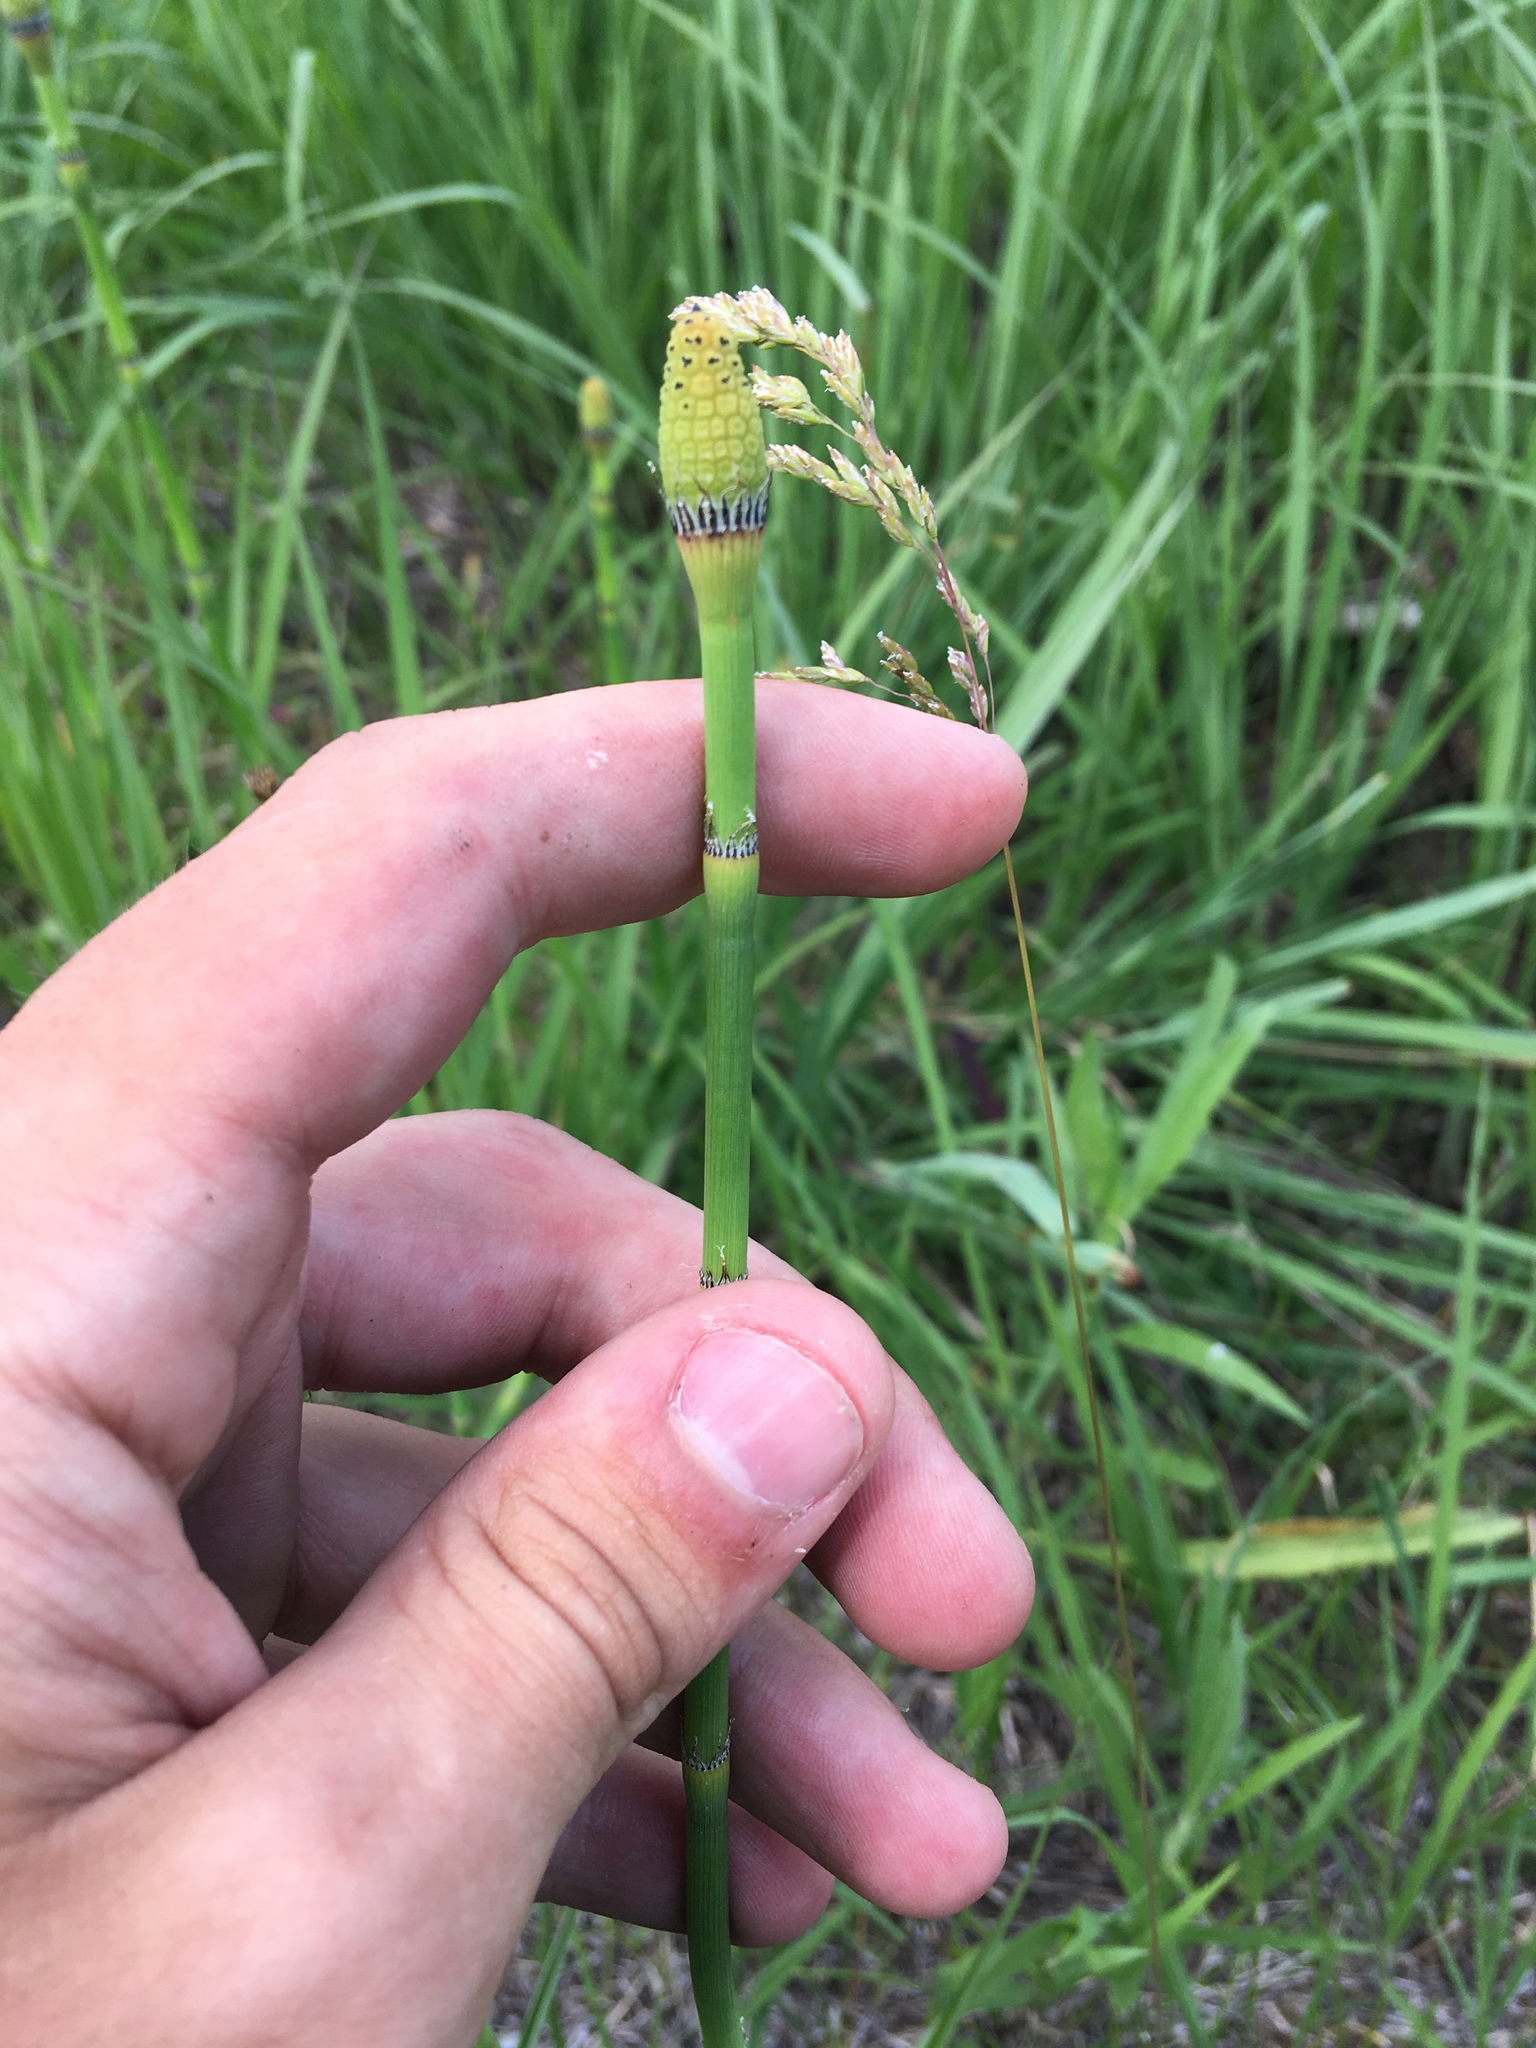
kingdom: Plantae
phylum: Tracheophyta
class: Polypodiopsida
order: Equisetales
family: Equisetaceae
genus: Equisetum
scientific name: Equisetum laevigatum
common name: Smooth scouring-rush
